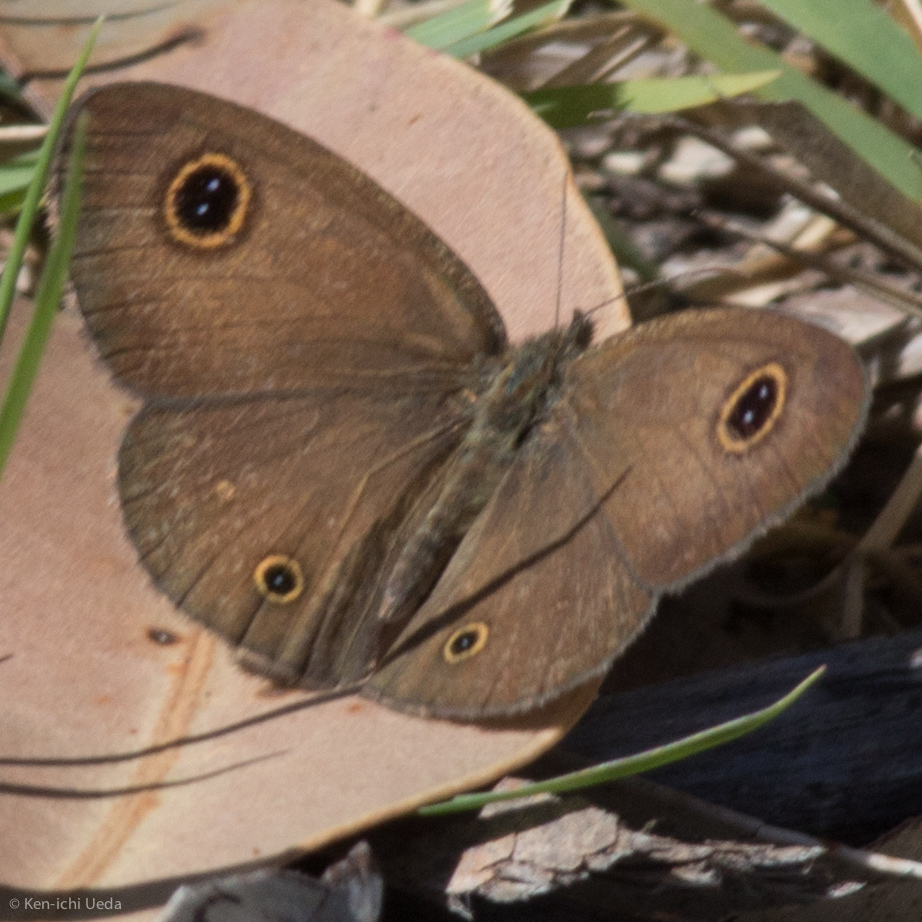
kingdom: Animalia
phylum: Arthropoda
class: Insecta
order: Lepidoptera
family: Nymphalidae
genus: Ypthima
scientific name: Ypthima arctous
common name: Dusky knight
